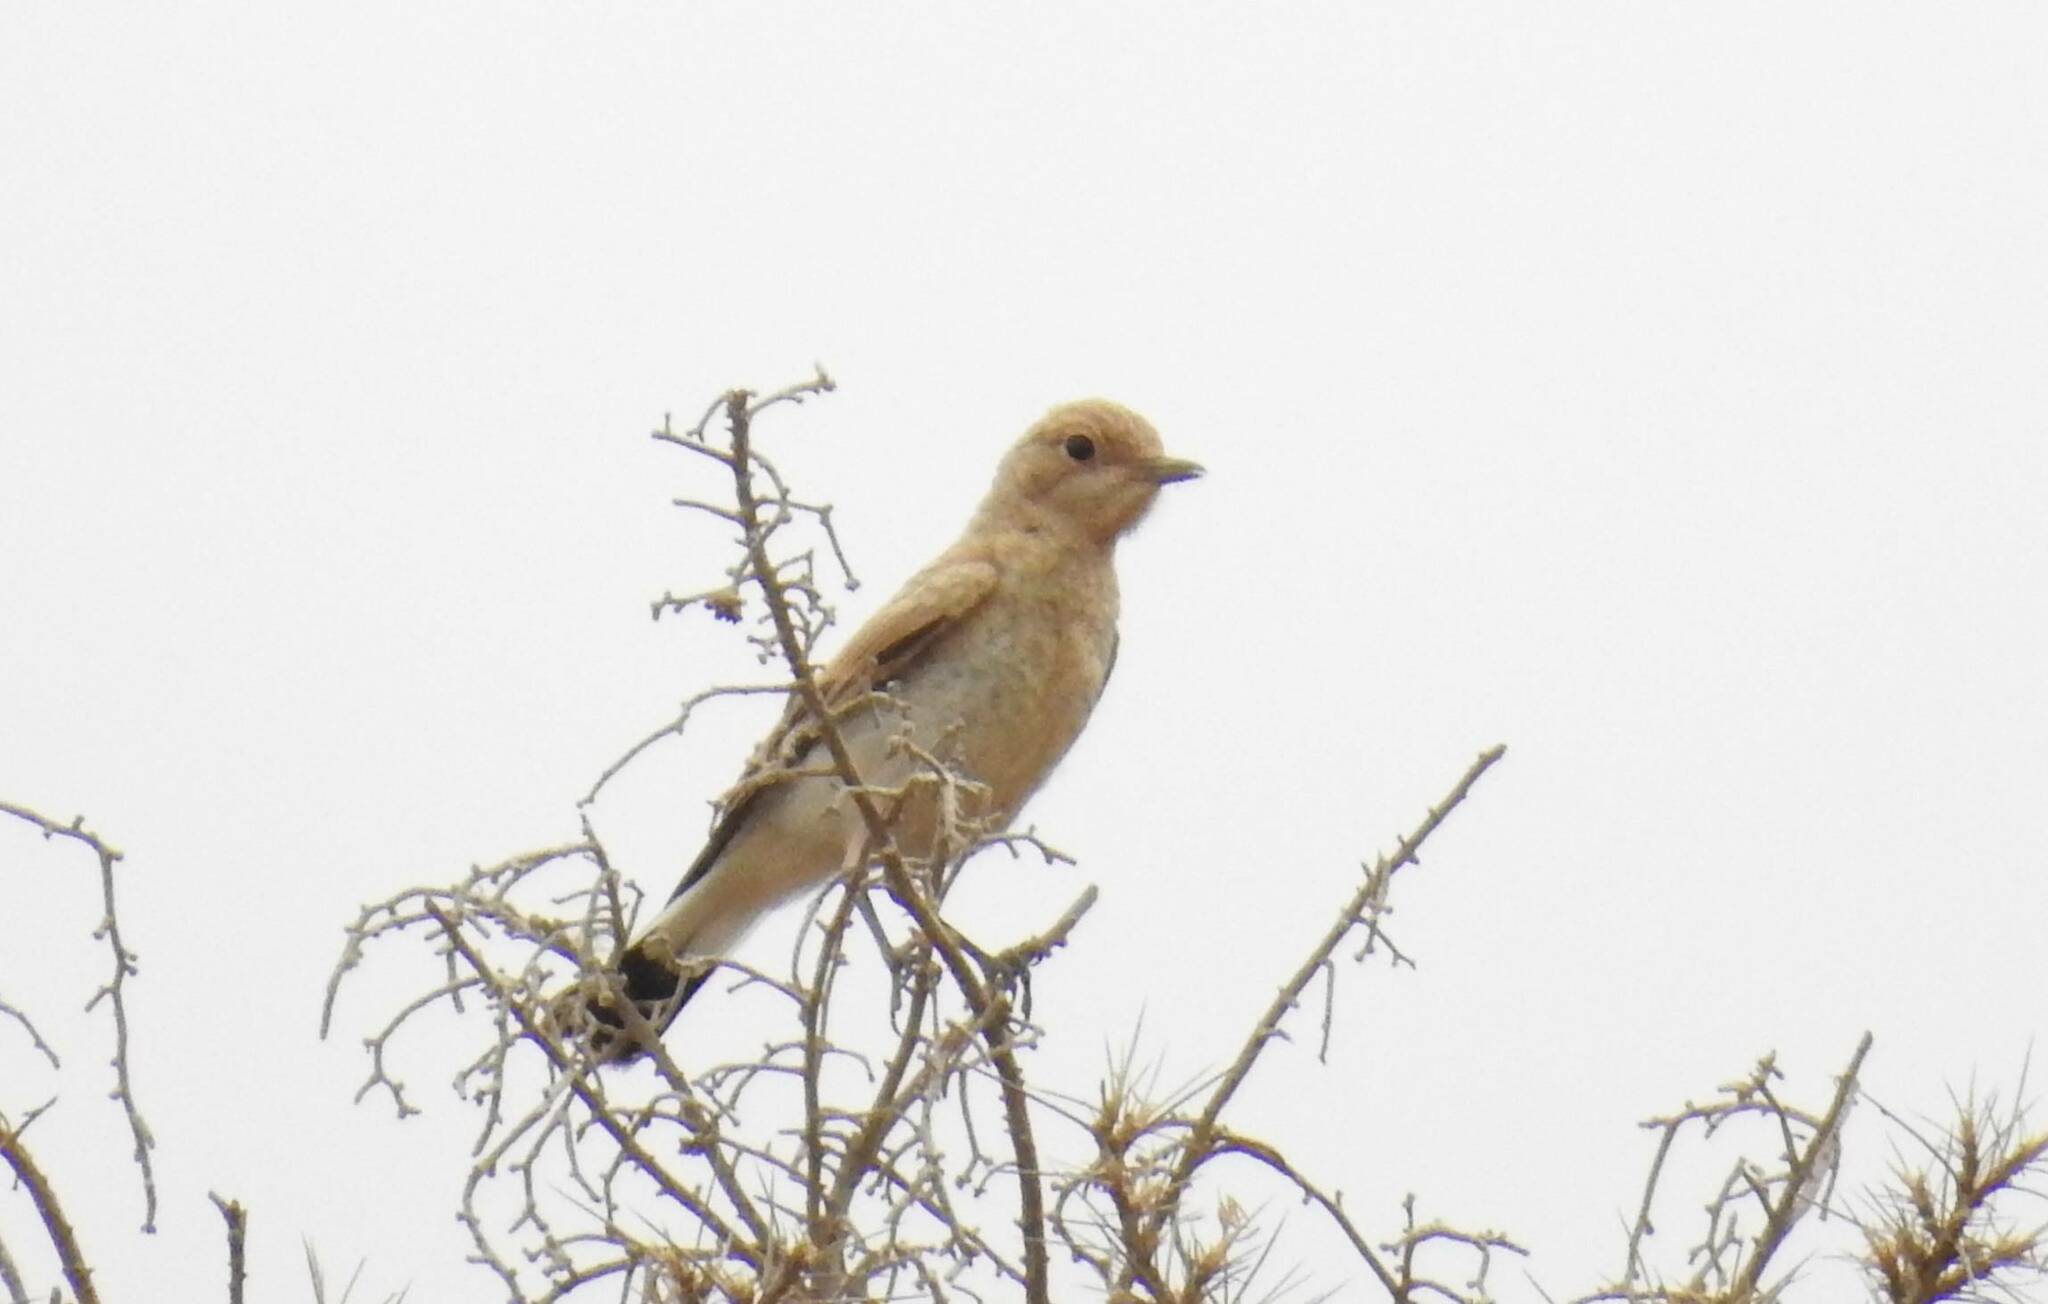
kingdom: Animalia
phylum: Chordata
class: Aves
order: Passeriformes
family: Muscicapidae
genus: Oenanthe
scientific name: Oenanthe hispanica
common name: Black-eared wheatear
